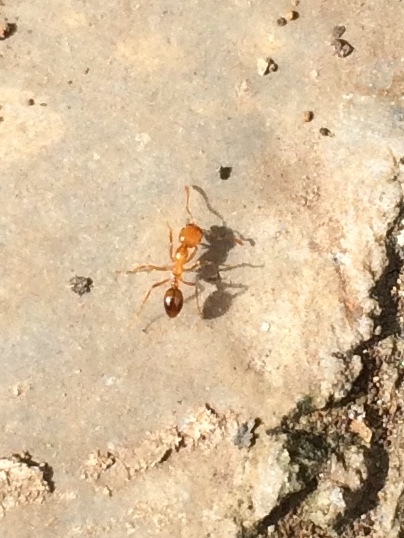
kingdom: Animalia
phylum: Arthropoda
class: Insecta
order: Hymenoptera
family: Formicidae
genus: Solenopsis
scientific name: Solenopsis geminata
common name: Tropical fire ant
